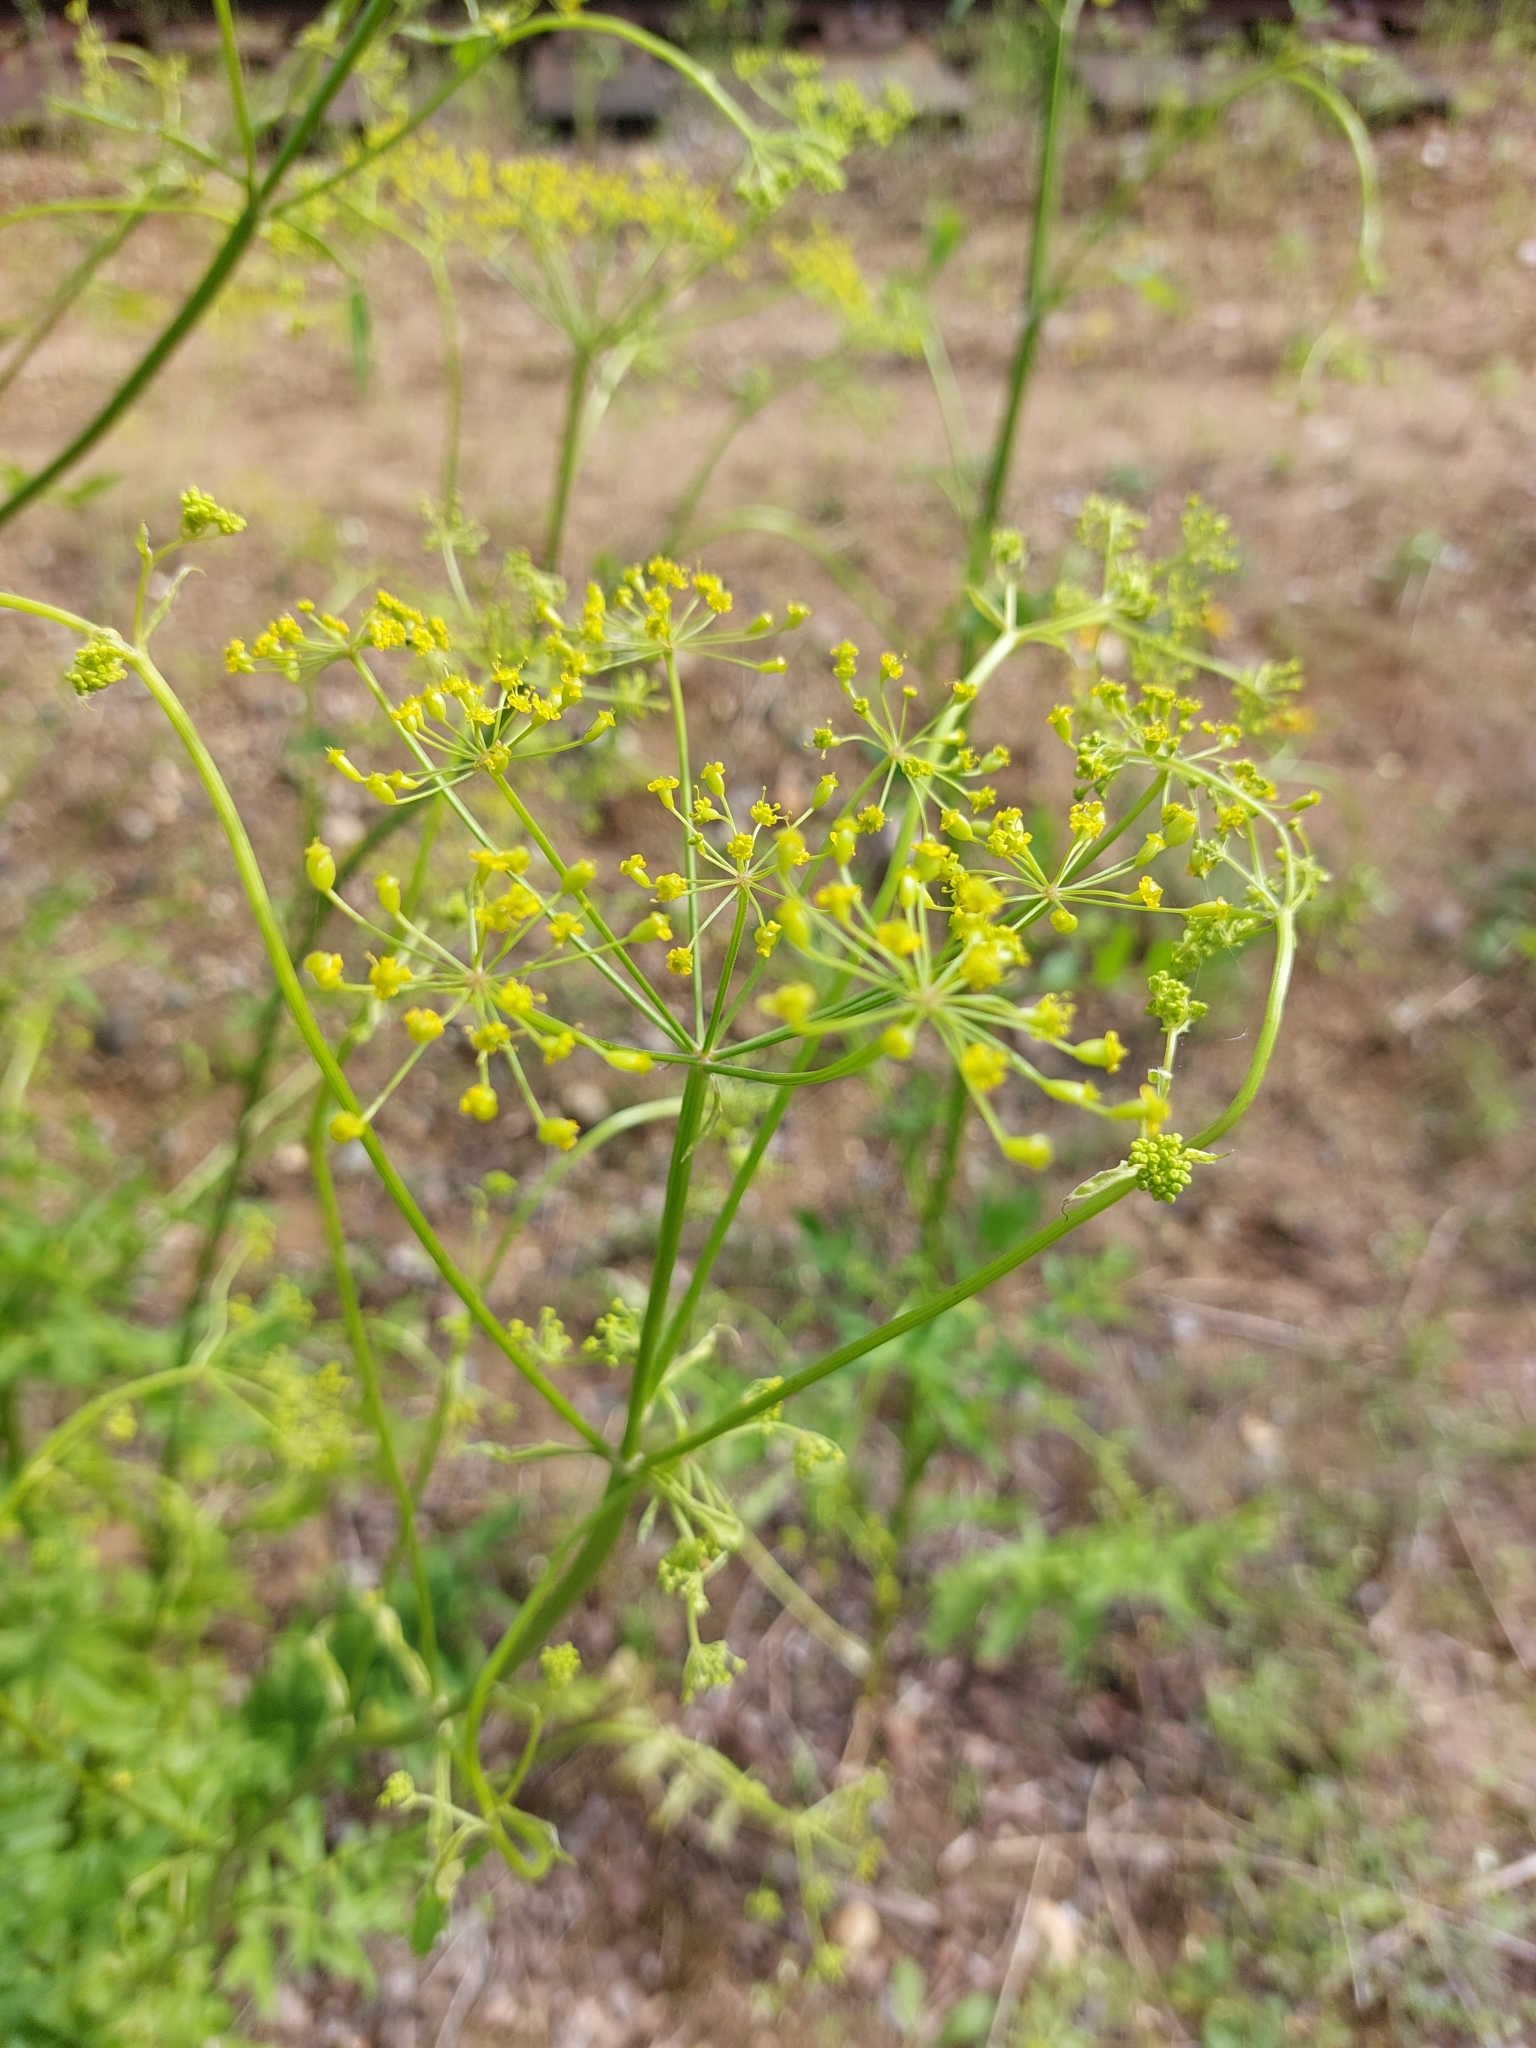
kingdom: Plantae
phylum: Tracheophyta
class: Magnoliopsida
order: Apiales
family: Apiaceae
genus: Pastinaca
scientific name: Pastinaca sativa
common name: Wild parsnip
